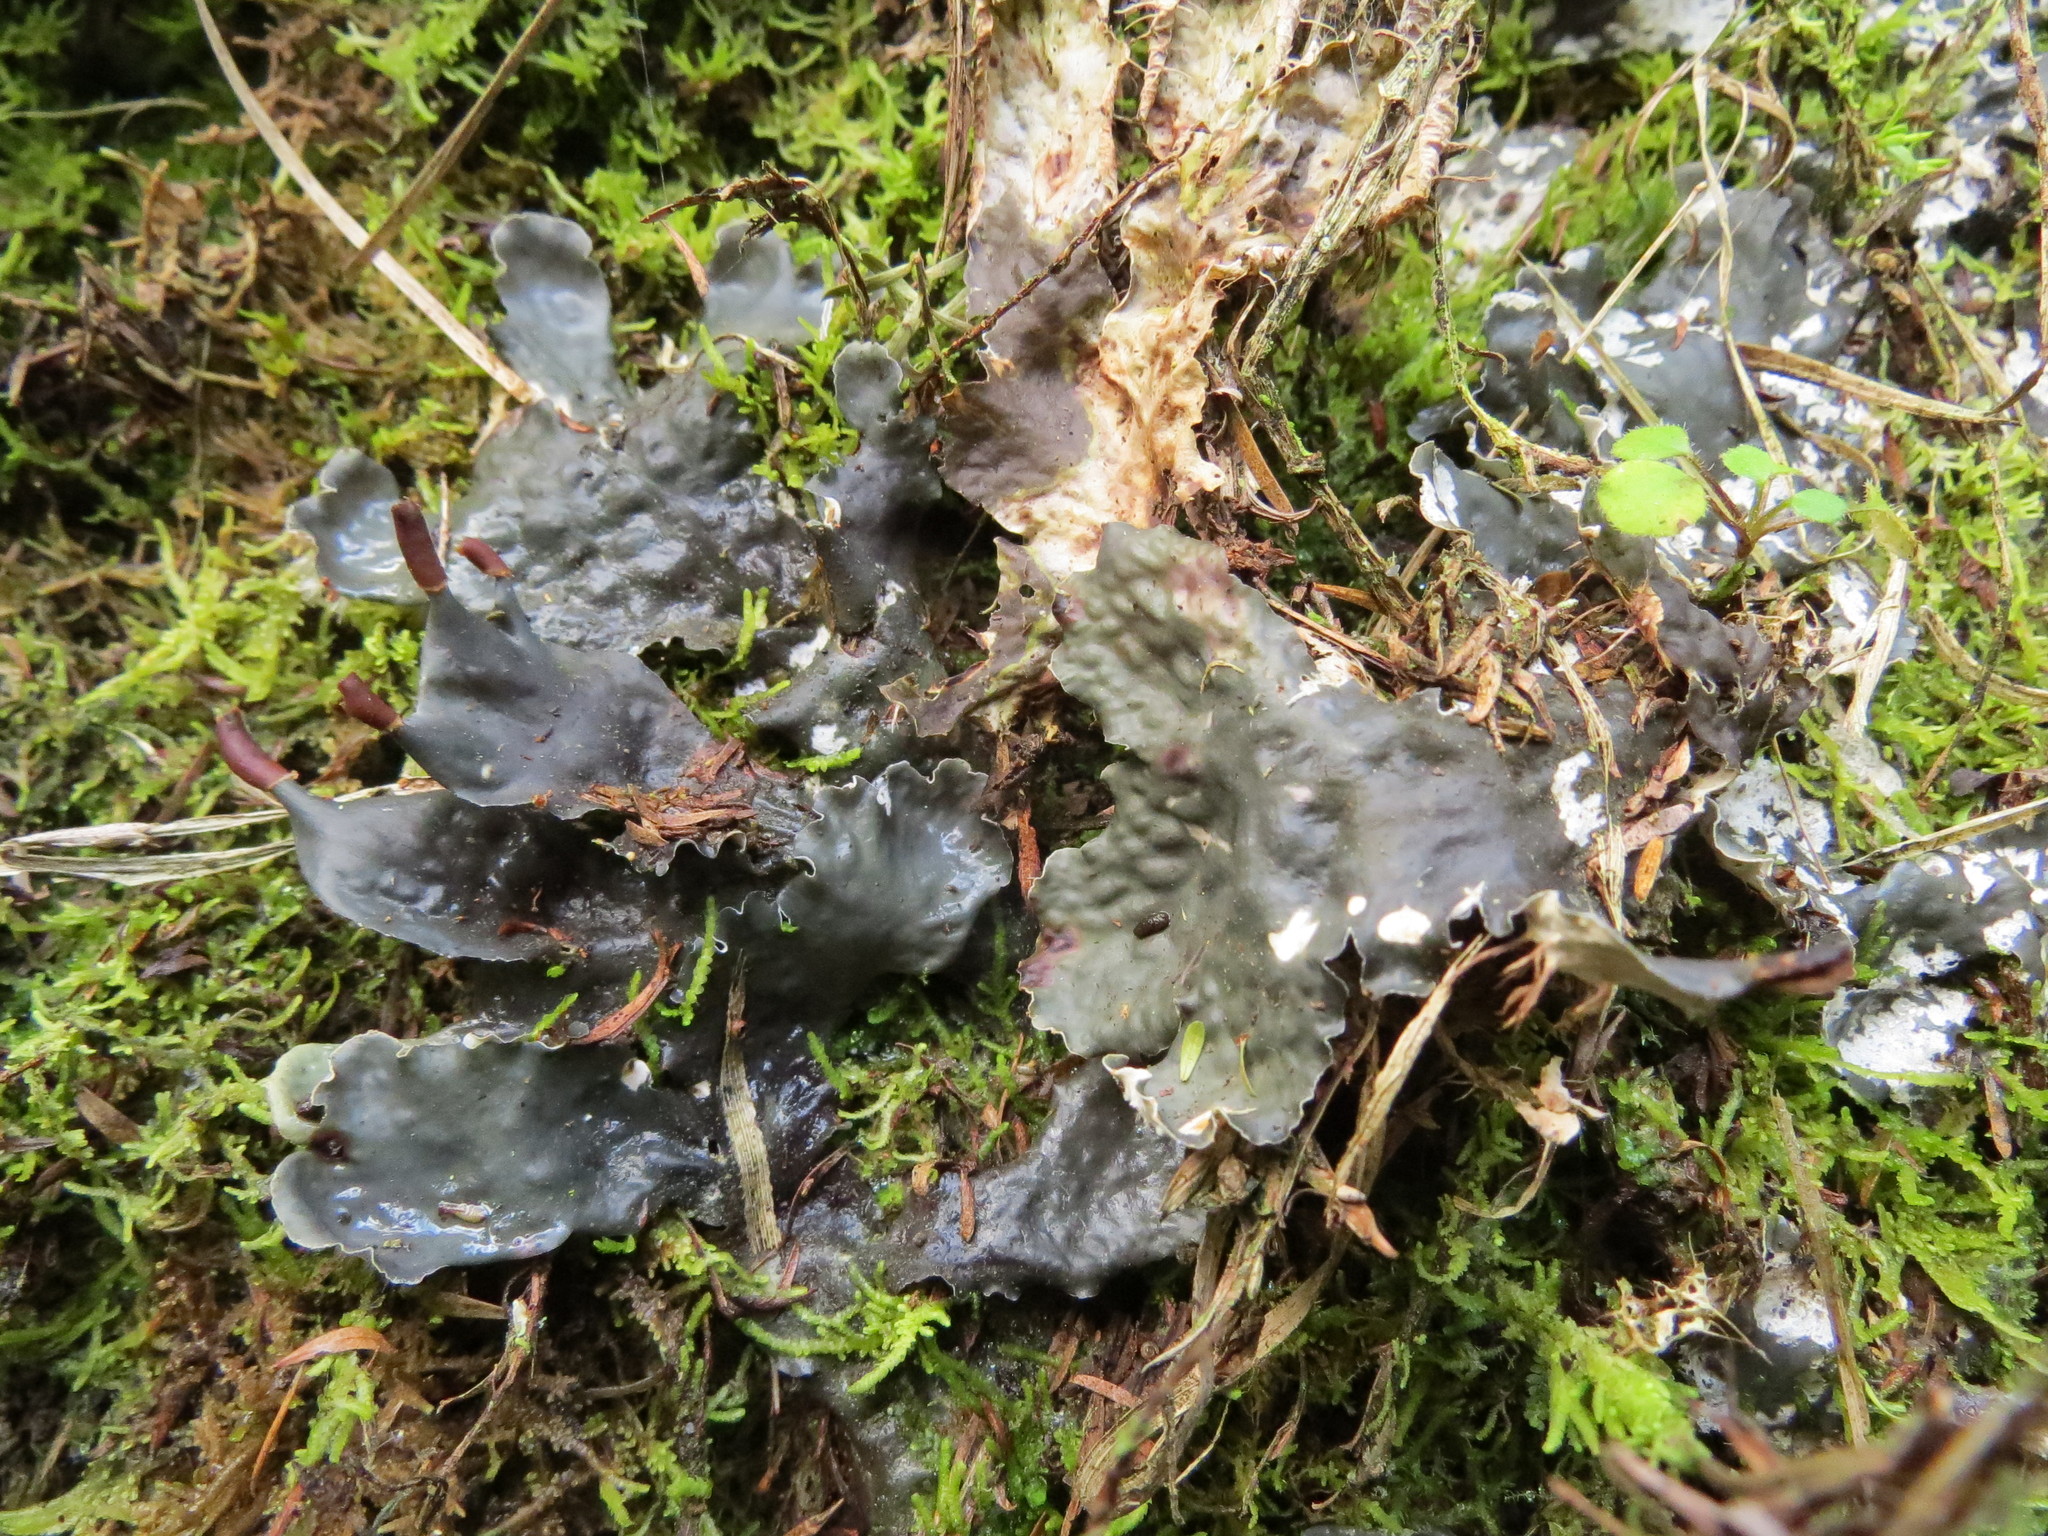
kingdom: Fungi
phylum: Ascomycota
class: Lecanoromycetes
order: Peltigerales
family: Peltigeraceae
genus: Peltigera
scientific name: Peltigera dolichorhiza
